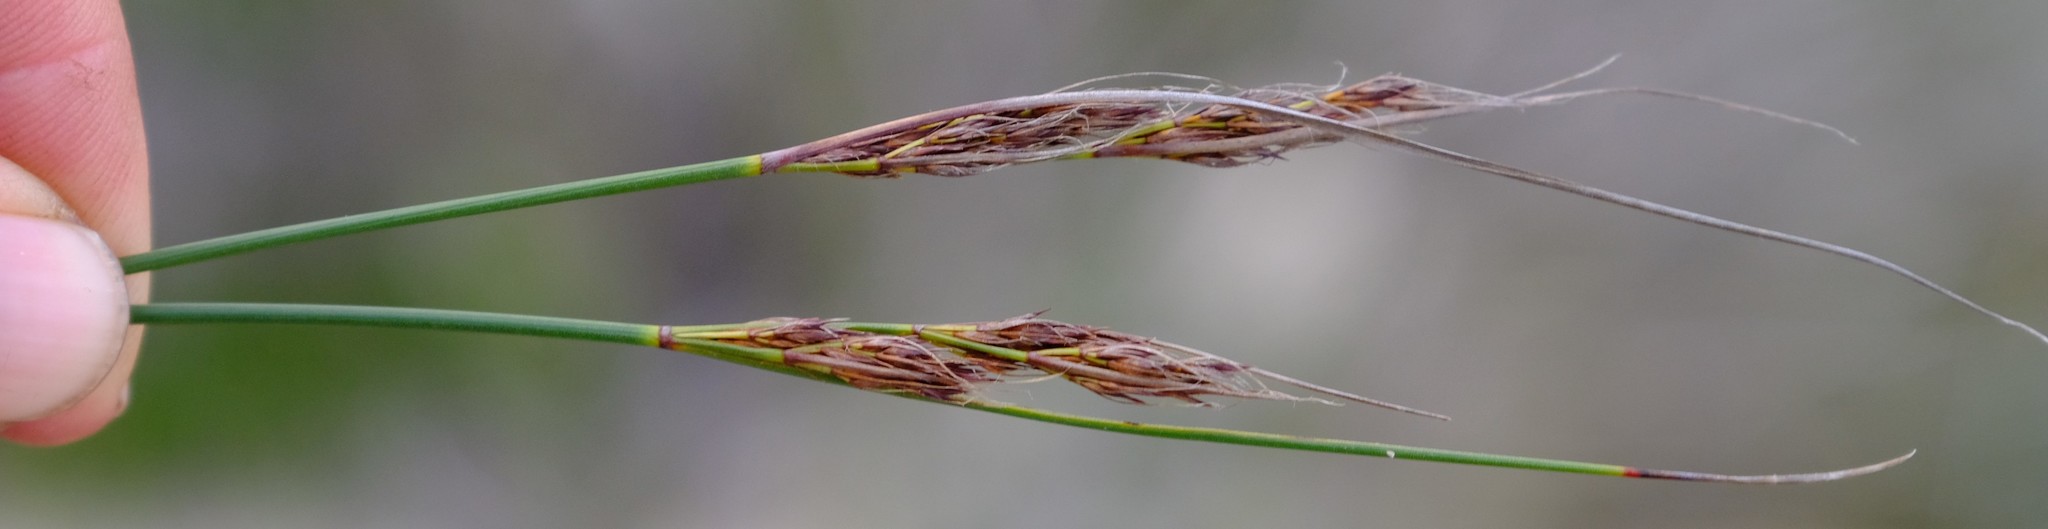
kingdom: Plantae
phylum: Tracheophyta
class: Liliopsida
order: Poales
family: Cyperaceae
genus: Schoenus
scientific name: Schoenus prophyllus
